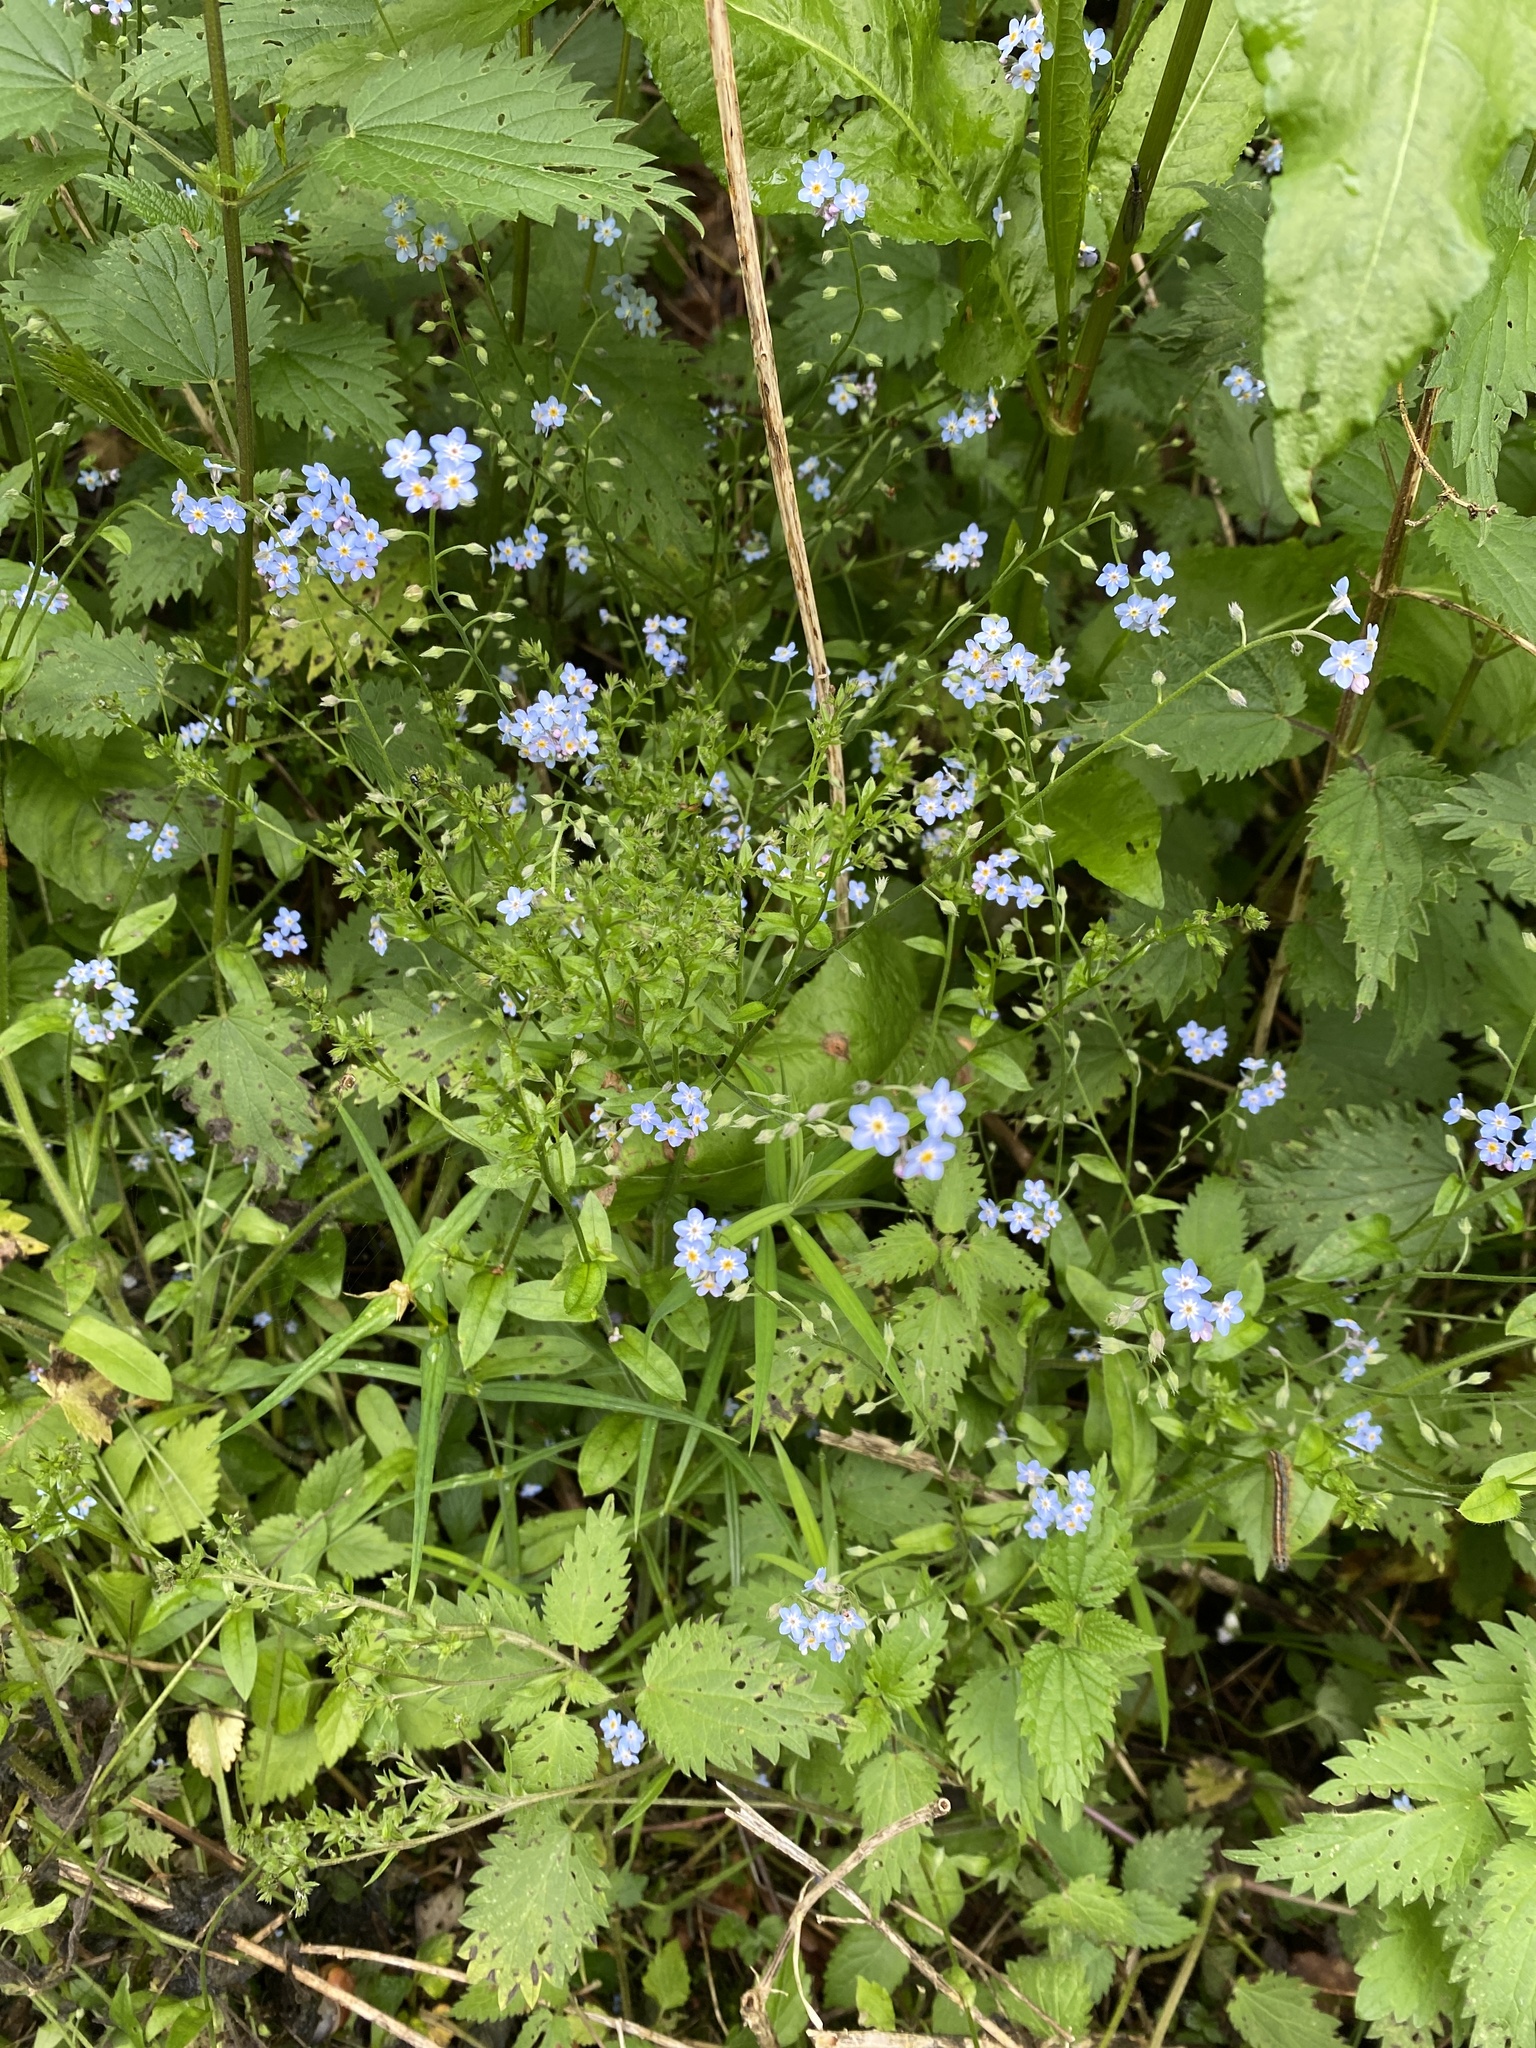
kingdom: Plantae
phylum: Tracheophyta
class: Magnoliopsida
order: Boraginales
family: Boraginaceae
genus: Myosotis
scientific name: Myosotis sylvatica
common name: Wood forget-me-not
